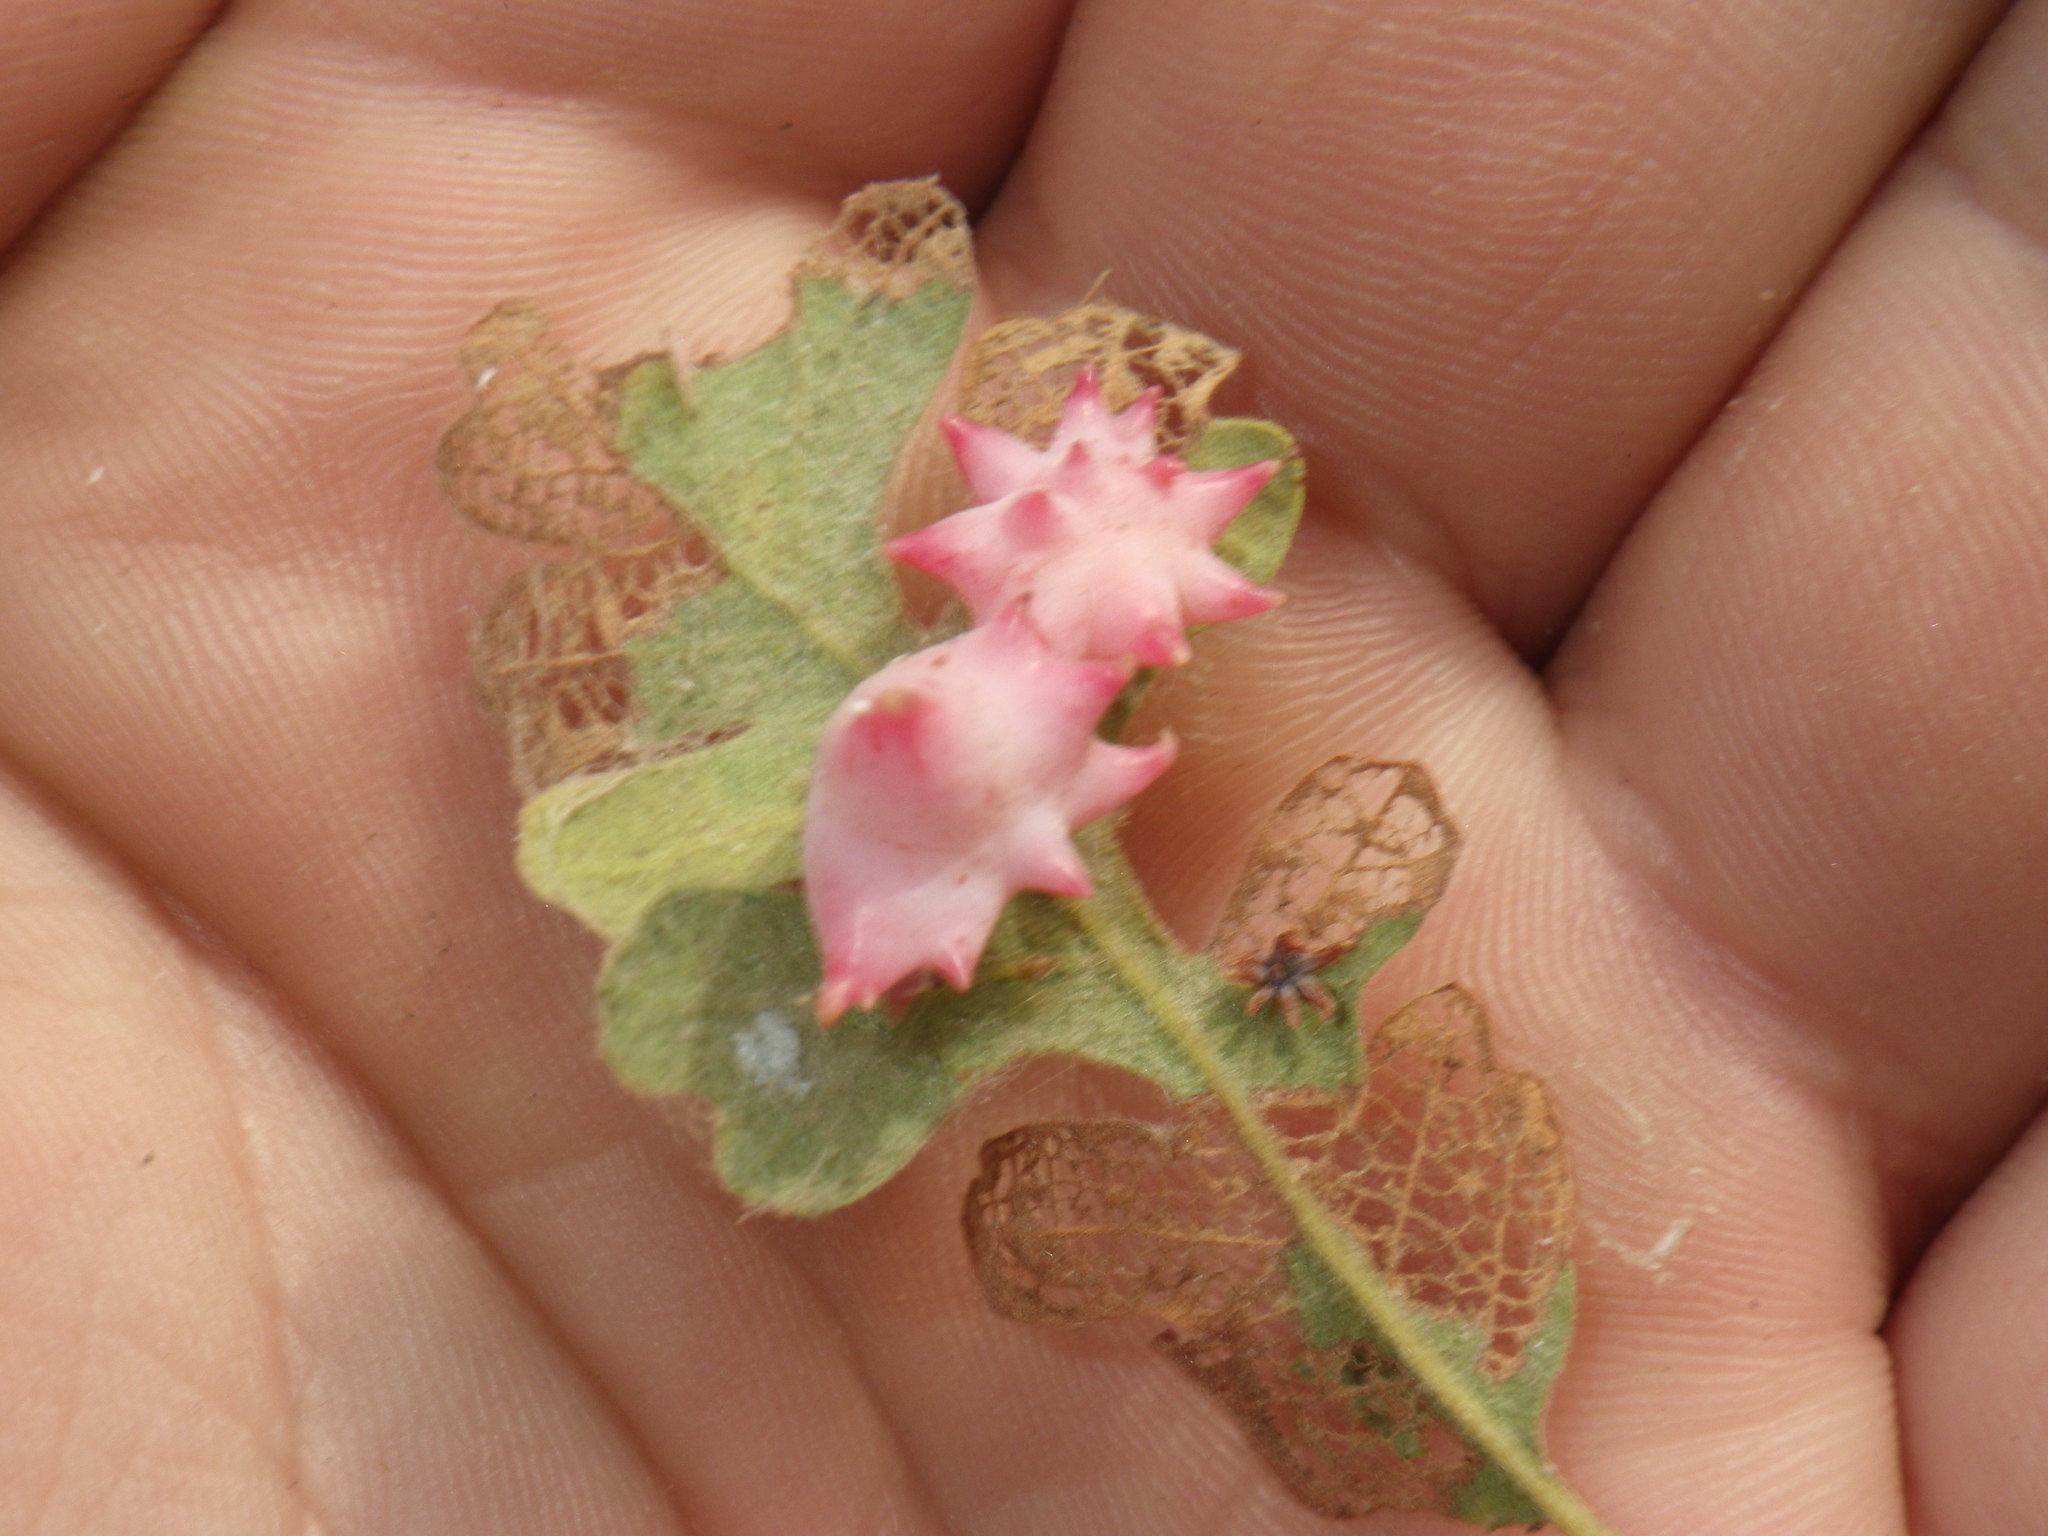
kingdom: Animalia
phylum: Arthropoda
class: Insecta
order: Hymenoptera
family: Cynipidae
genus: Cynips
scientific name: Cynips douglasi
